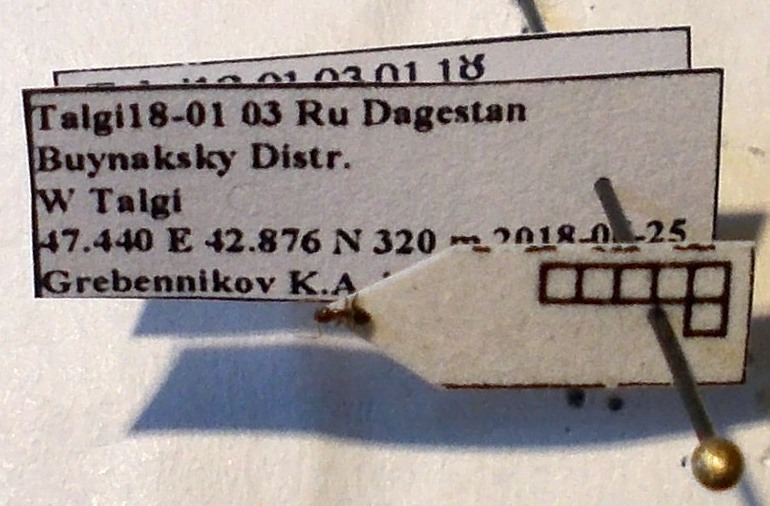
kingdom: Animalia
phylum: Arthropoda
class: Insecta
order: Hymenoptera
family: Formicidae
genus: Plagiolepis
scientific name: Plagiolepis pallescens
